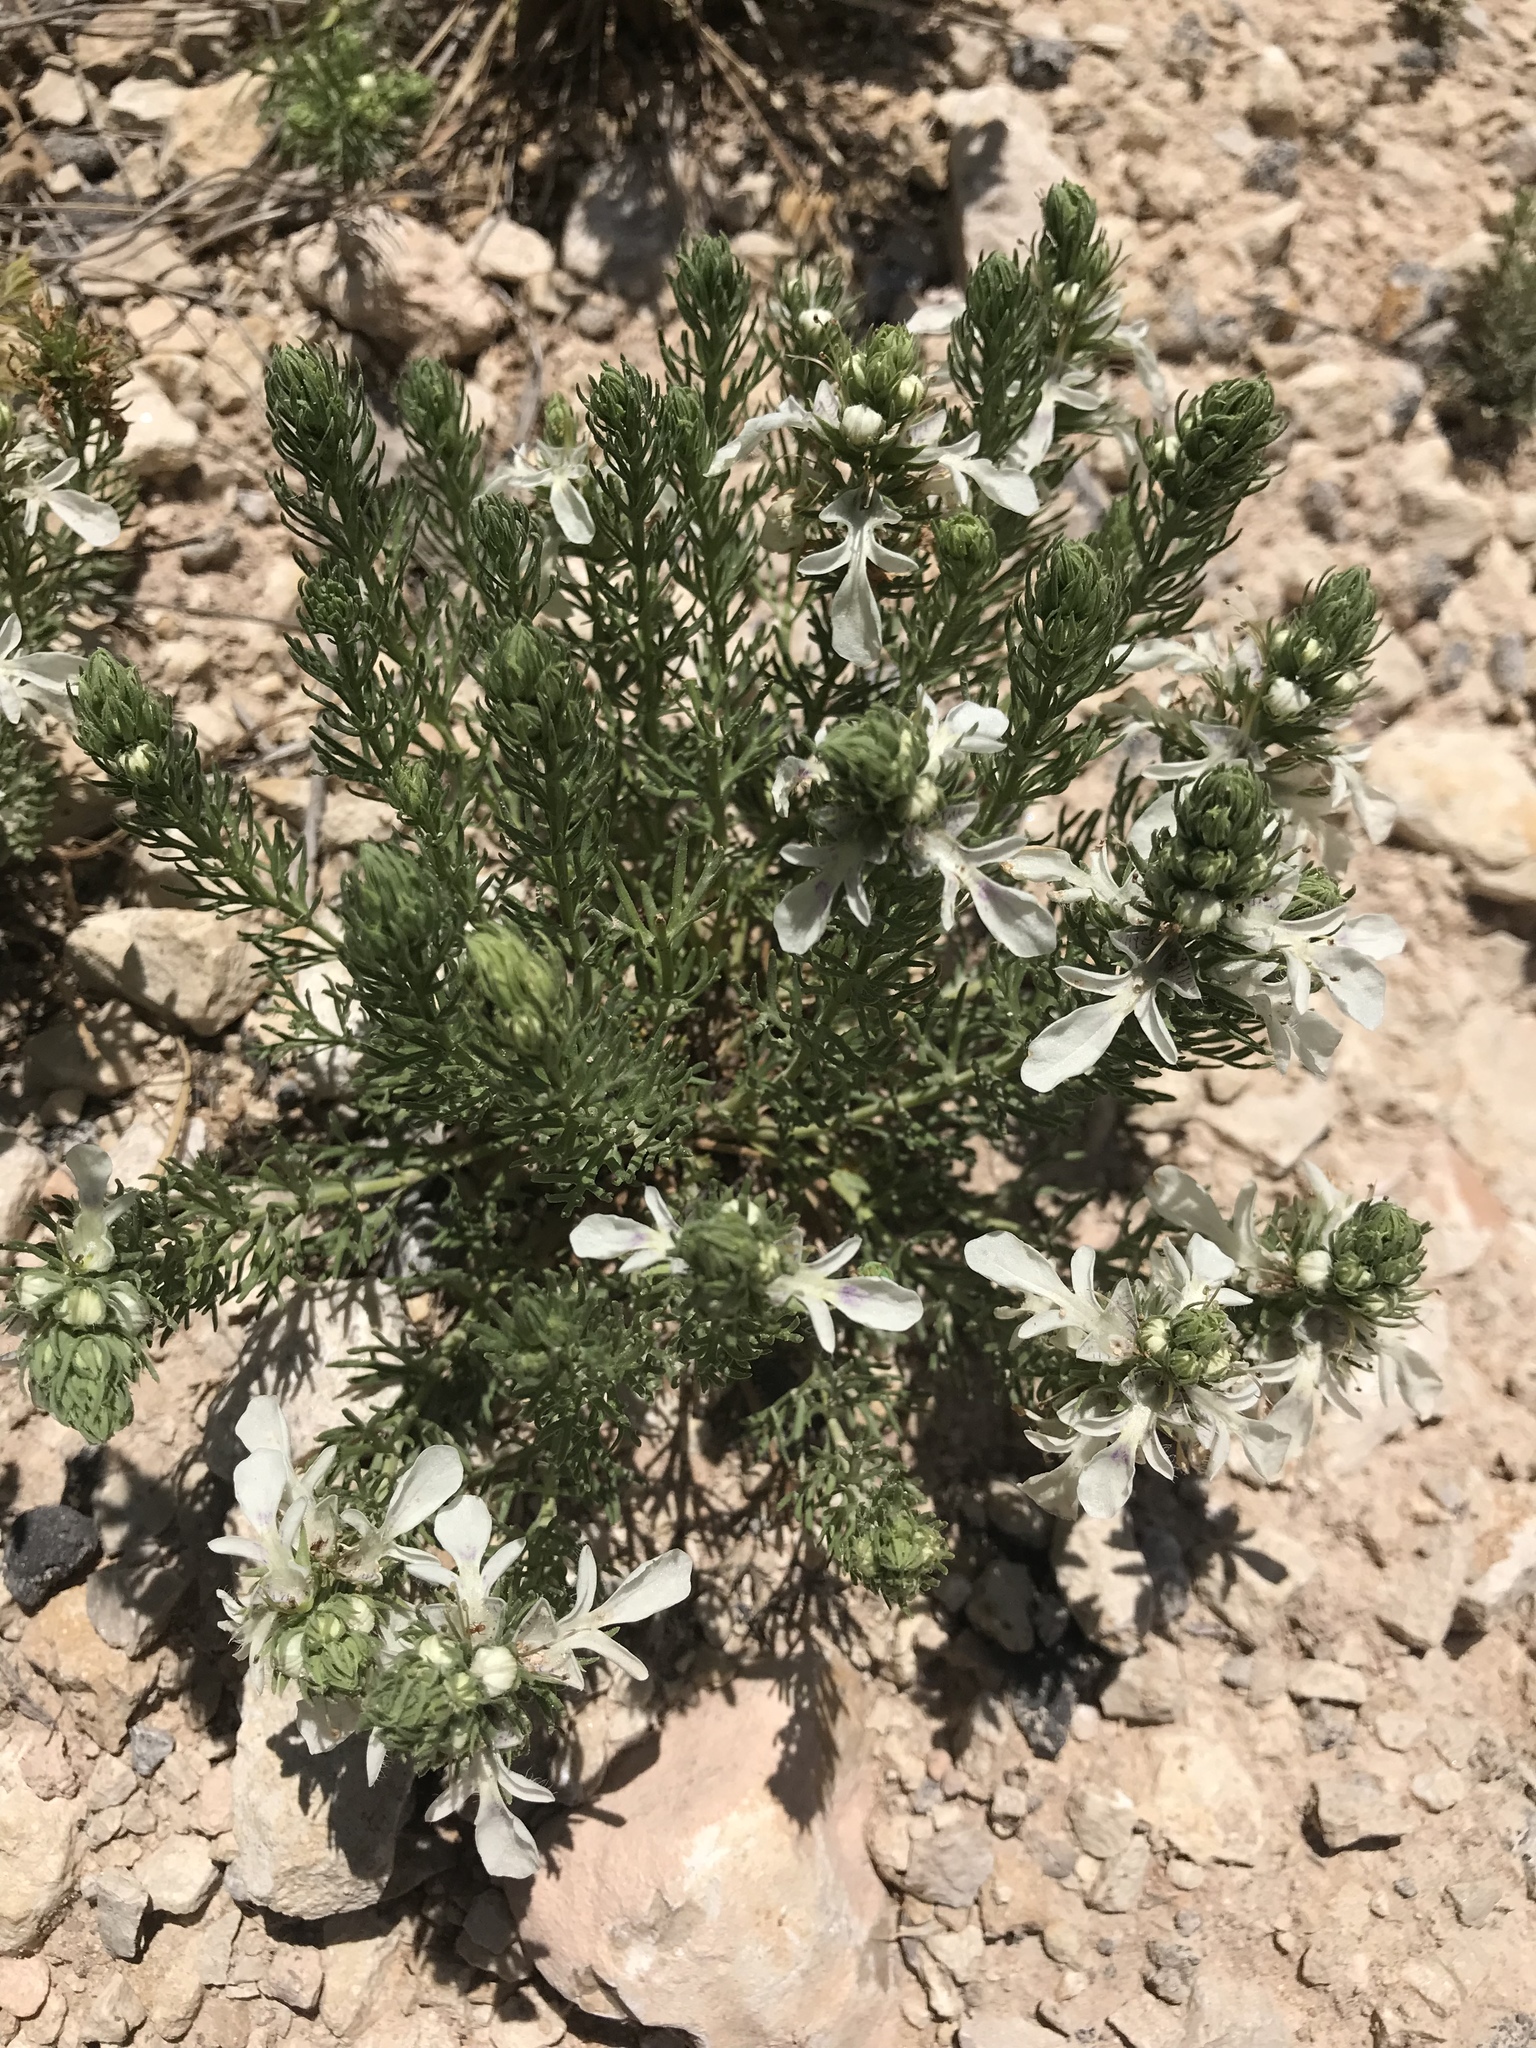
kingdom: Plantae
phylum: Tracheophyta
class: Magnoliopsida
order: Lamiales
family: Lamiaceae
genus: Teucrium
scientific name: Teucrium laciniatum
